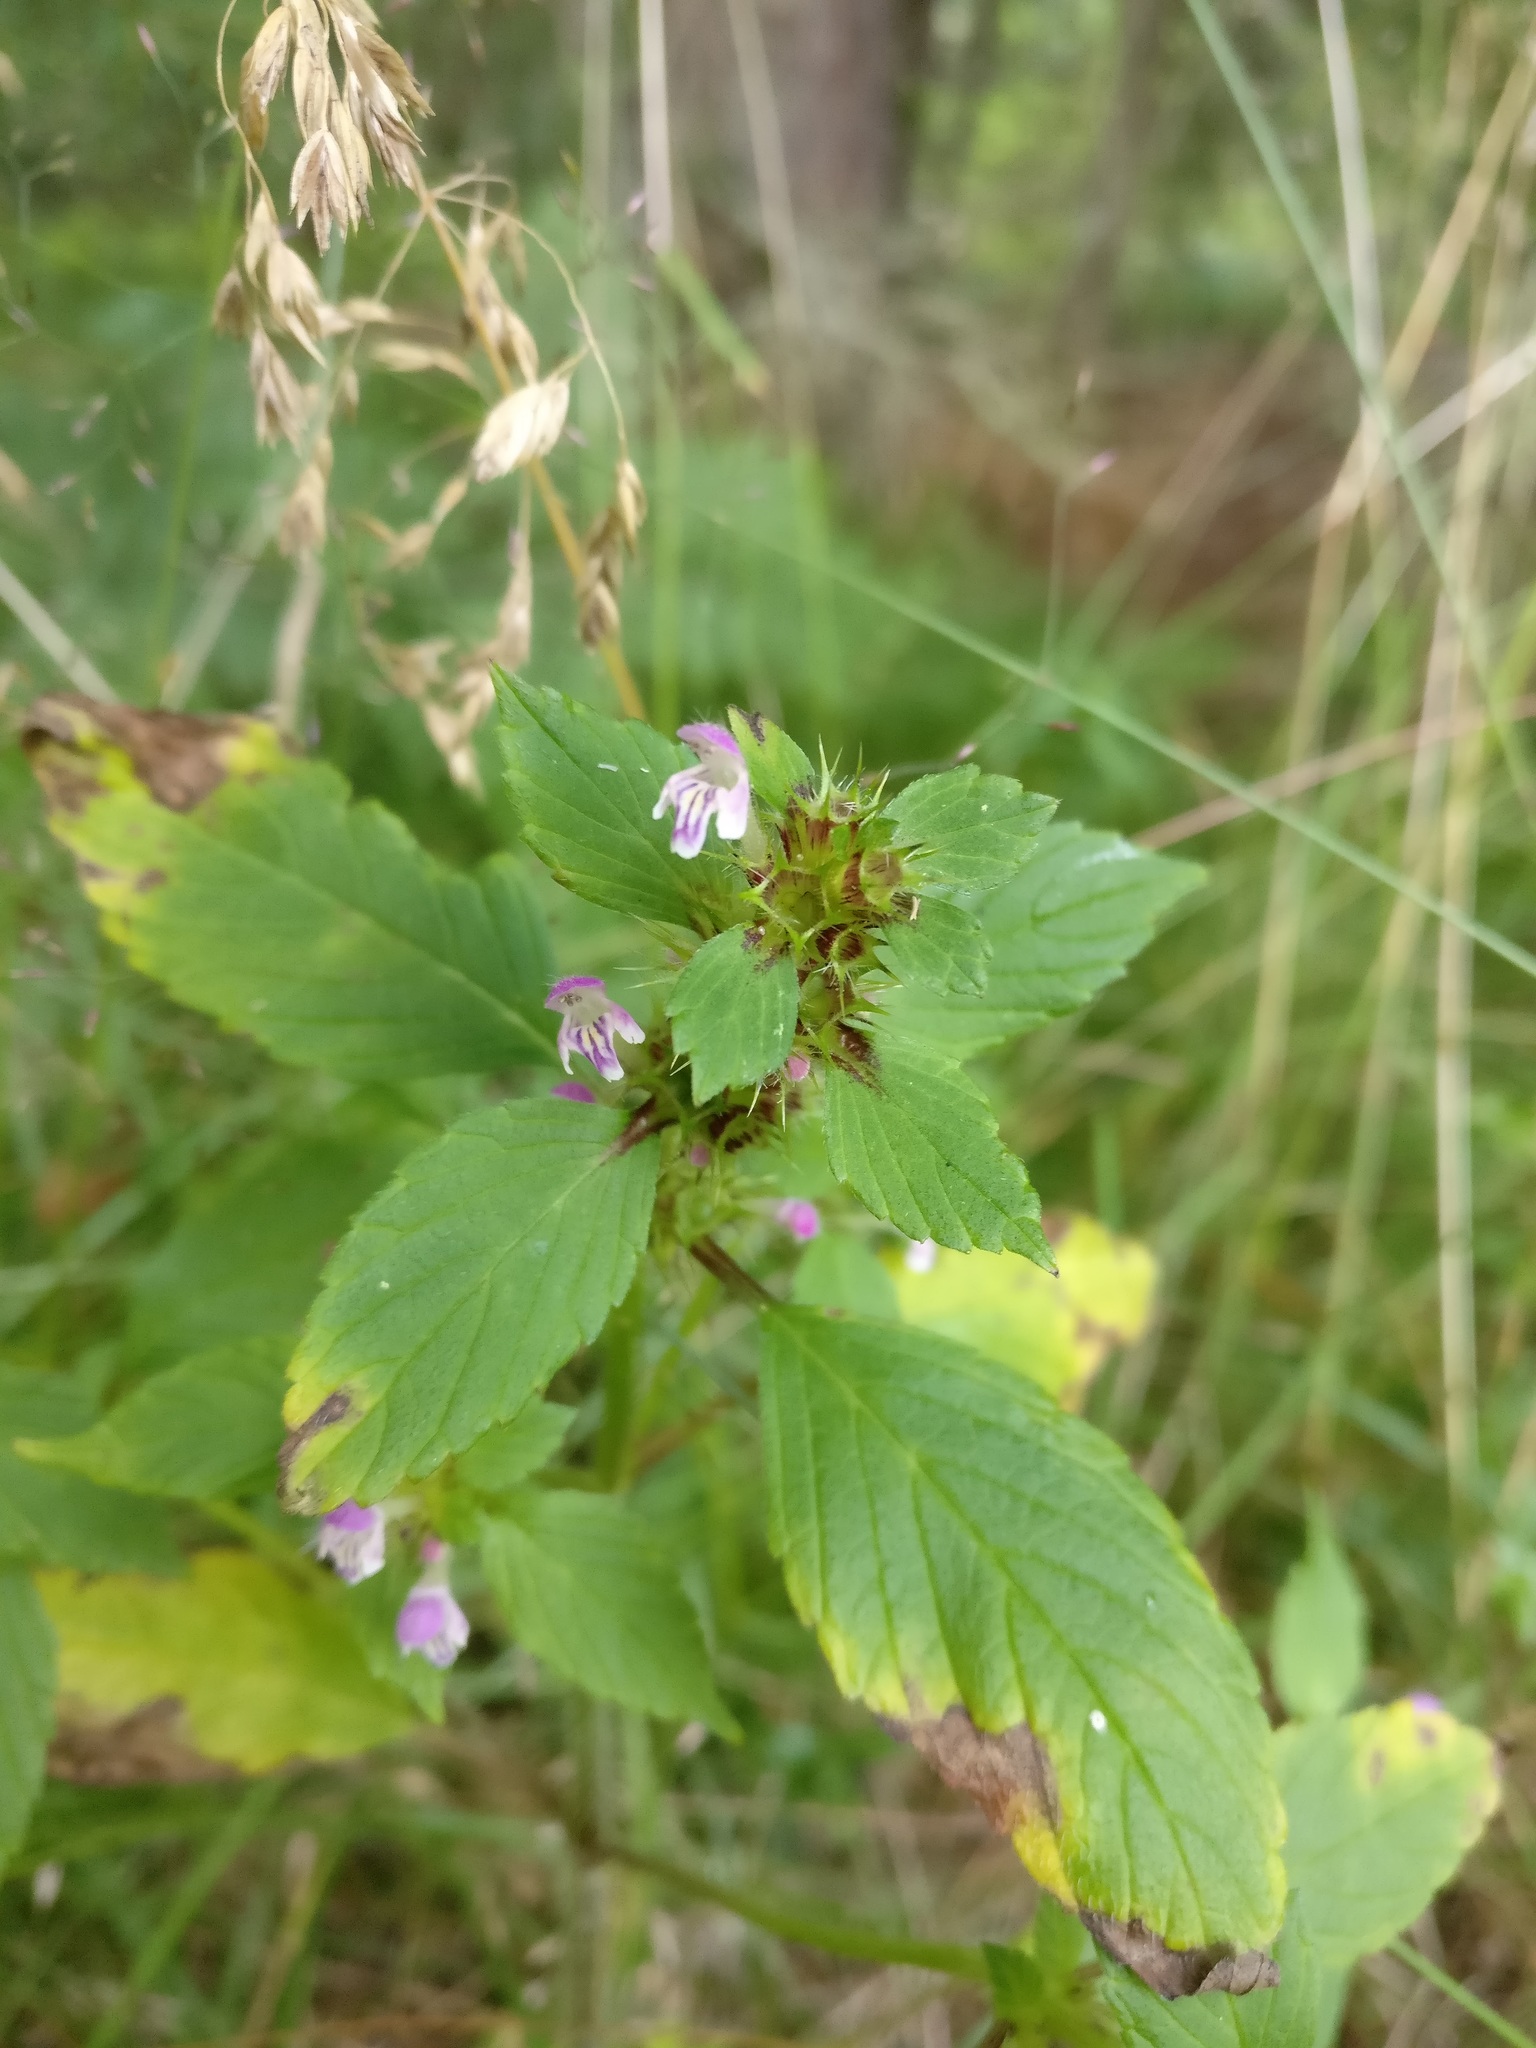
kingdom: Plantae
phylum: Tracheophyta
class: Magnoliopsida
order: Lamiales
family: Lamiaceae
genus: Galeopsis
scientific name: Galeopsis bifida
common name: Bifid hemp-nettle
